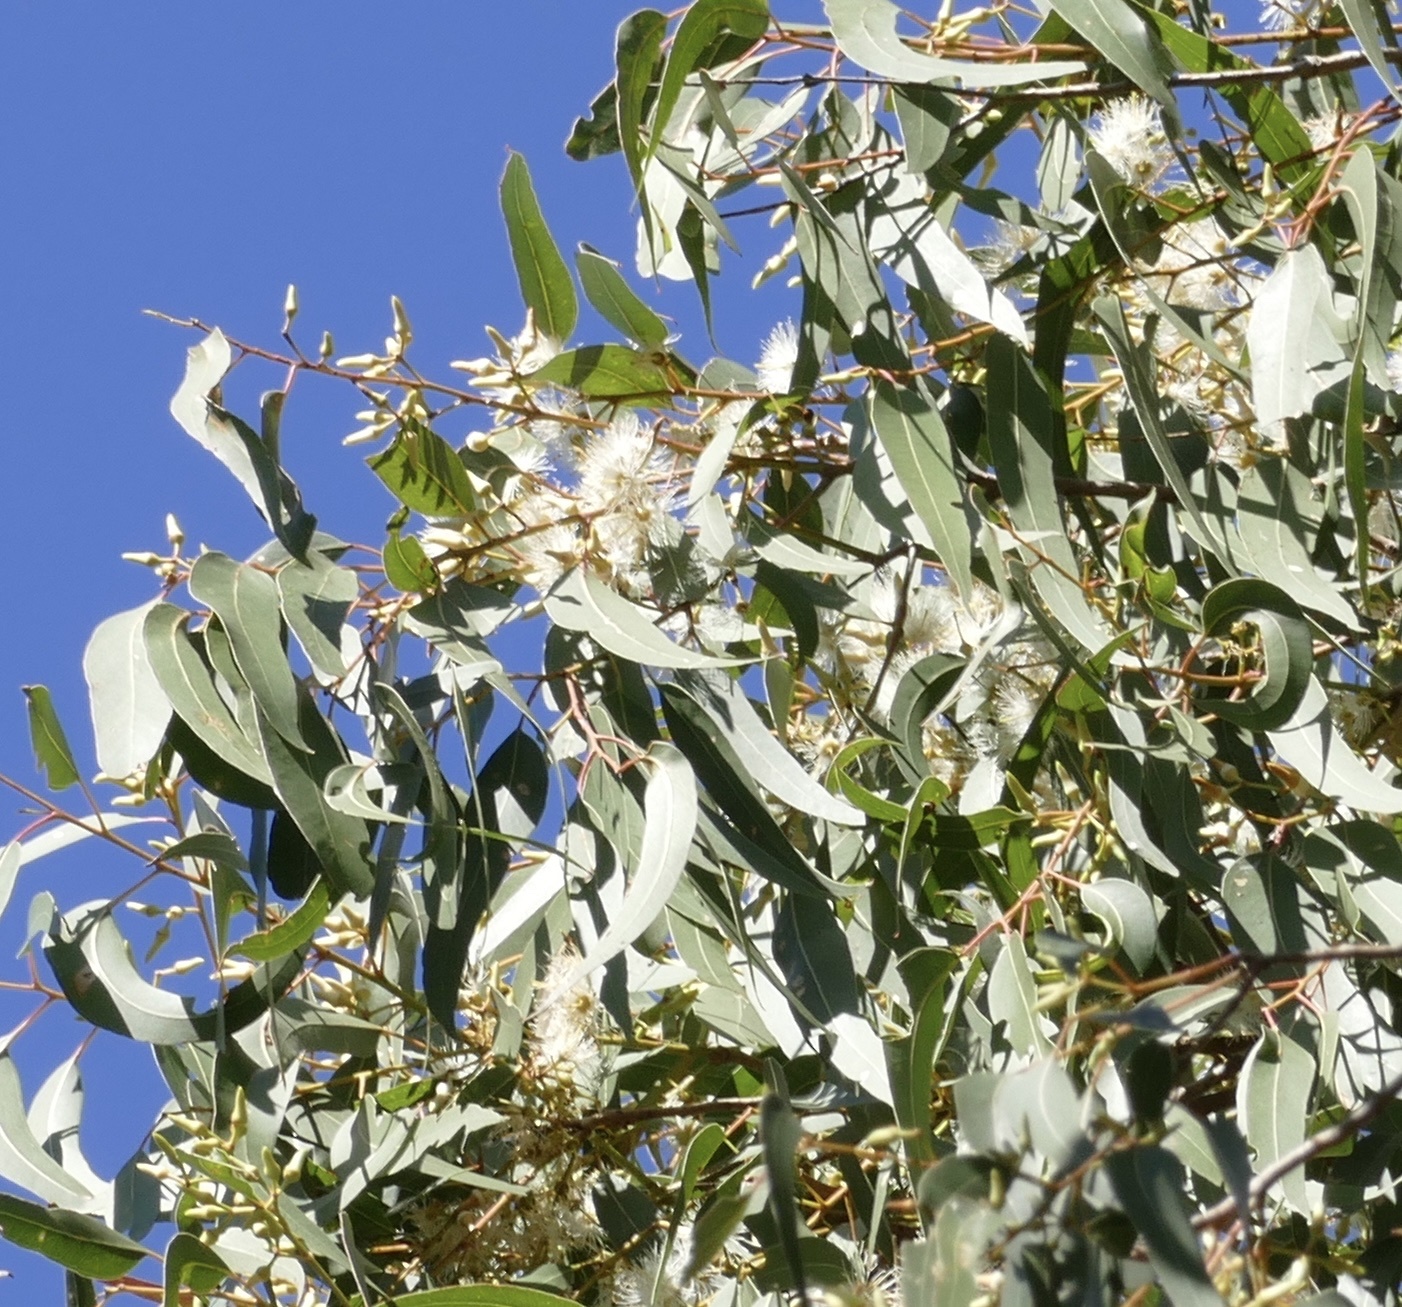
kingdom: Plantae
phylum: Tracheophyta
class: Magnoliopsida
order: Myrtales
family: Myrtaceae
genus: Eucalyptus
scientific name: Eucalyptus tereticornis
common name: Forest redgum
